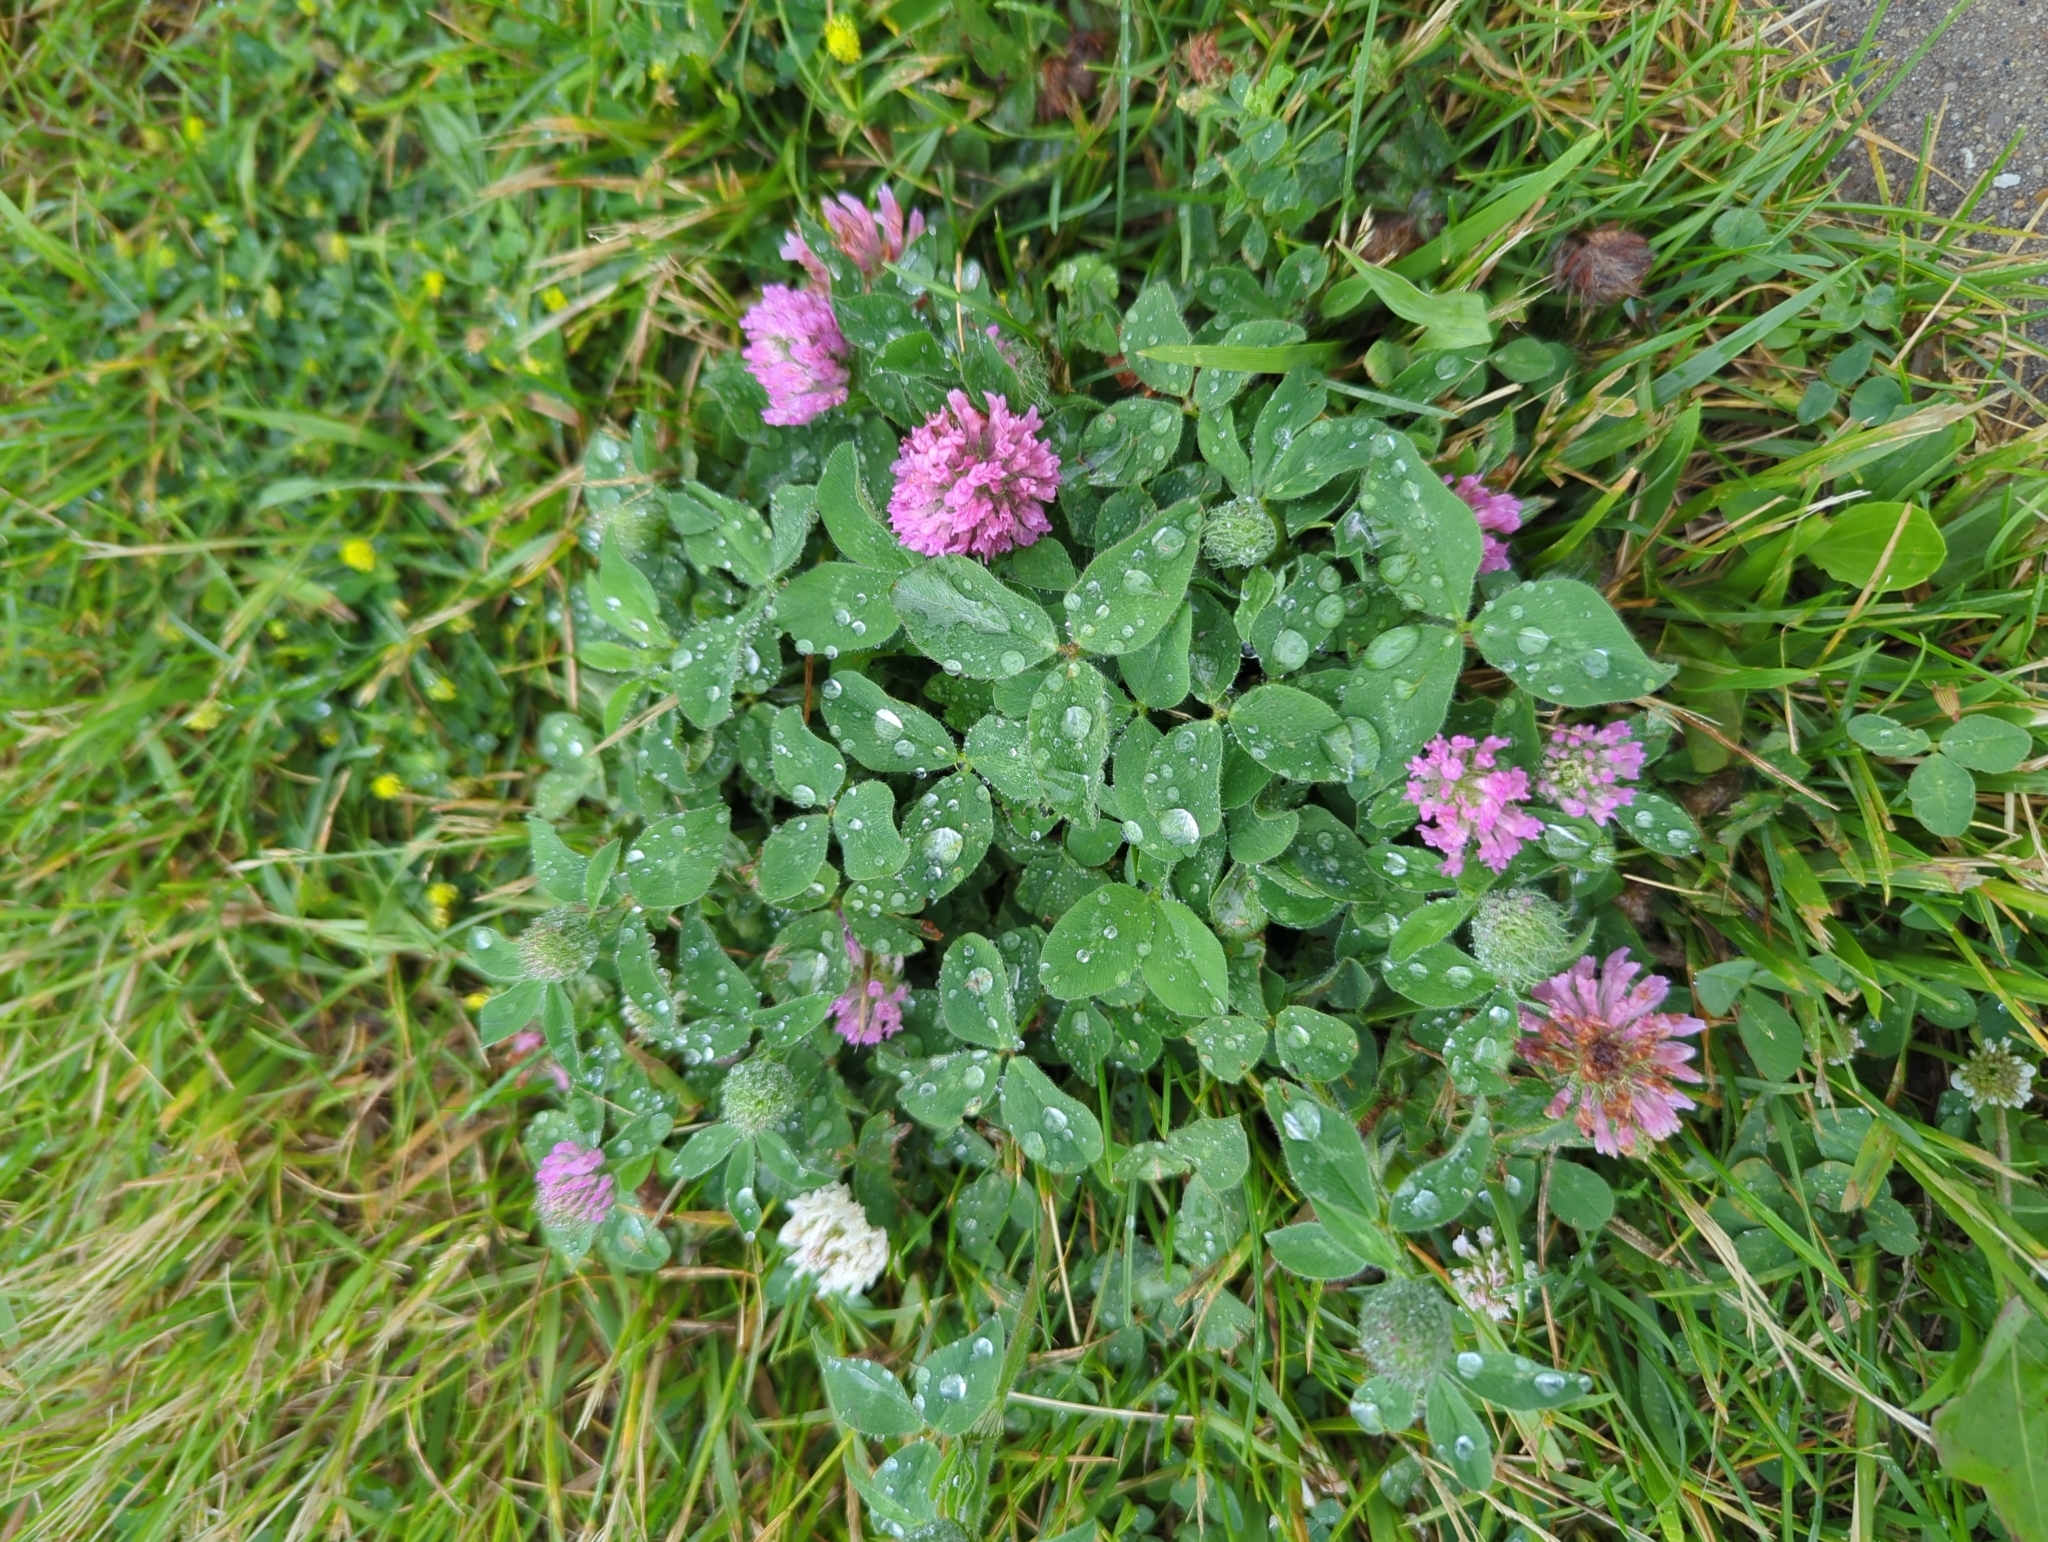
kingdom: Plantae
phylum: Tracheophyta
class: Magnoliopsida
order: Fabales
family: Fabaceae
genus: Trifolium
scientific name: Trifolium pratense
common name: Red clover
